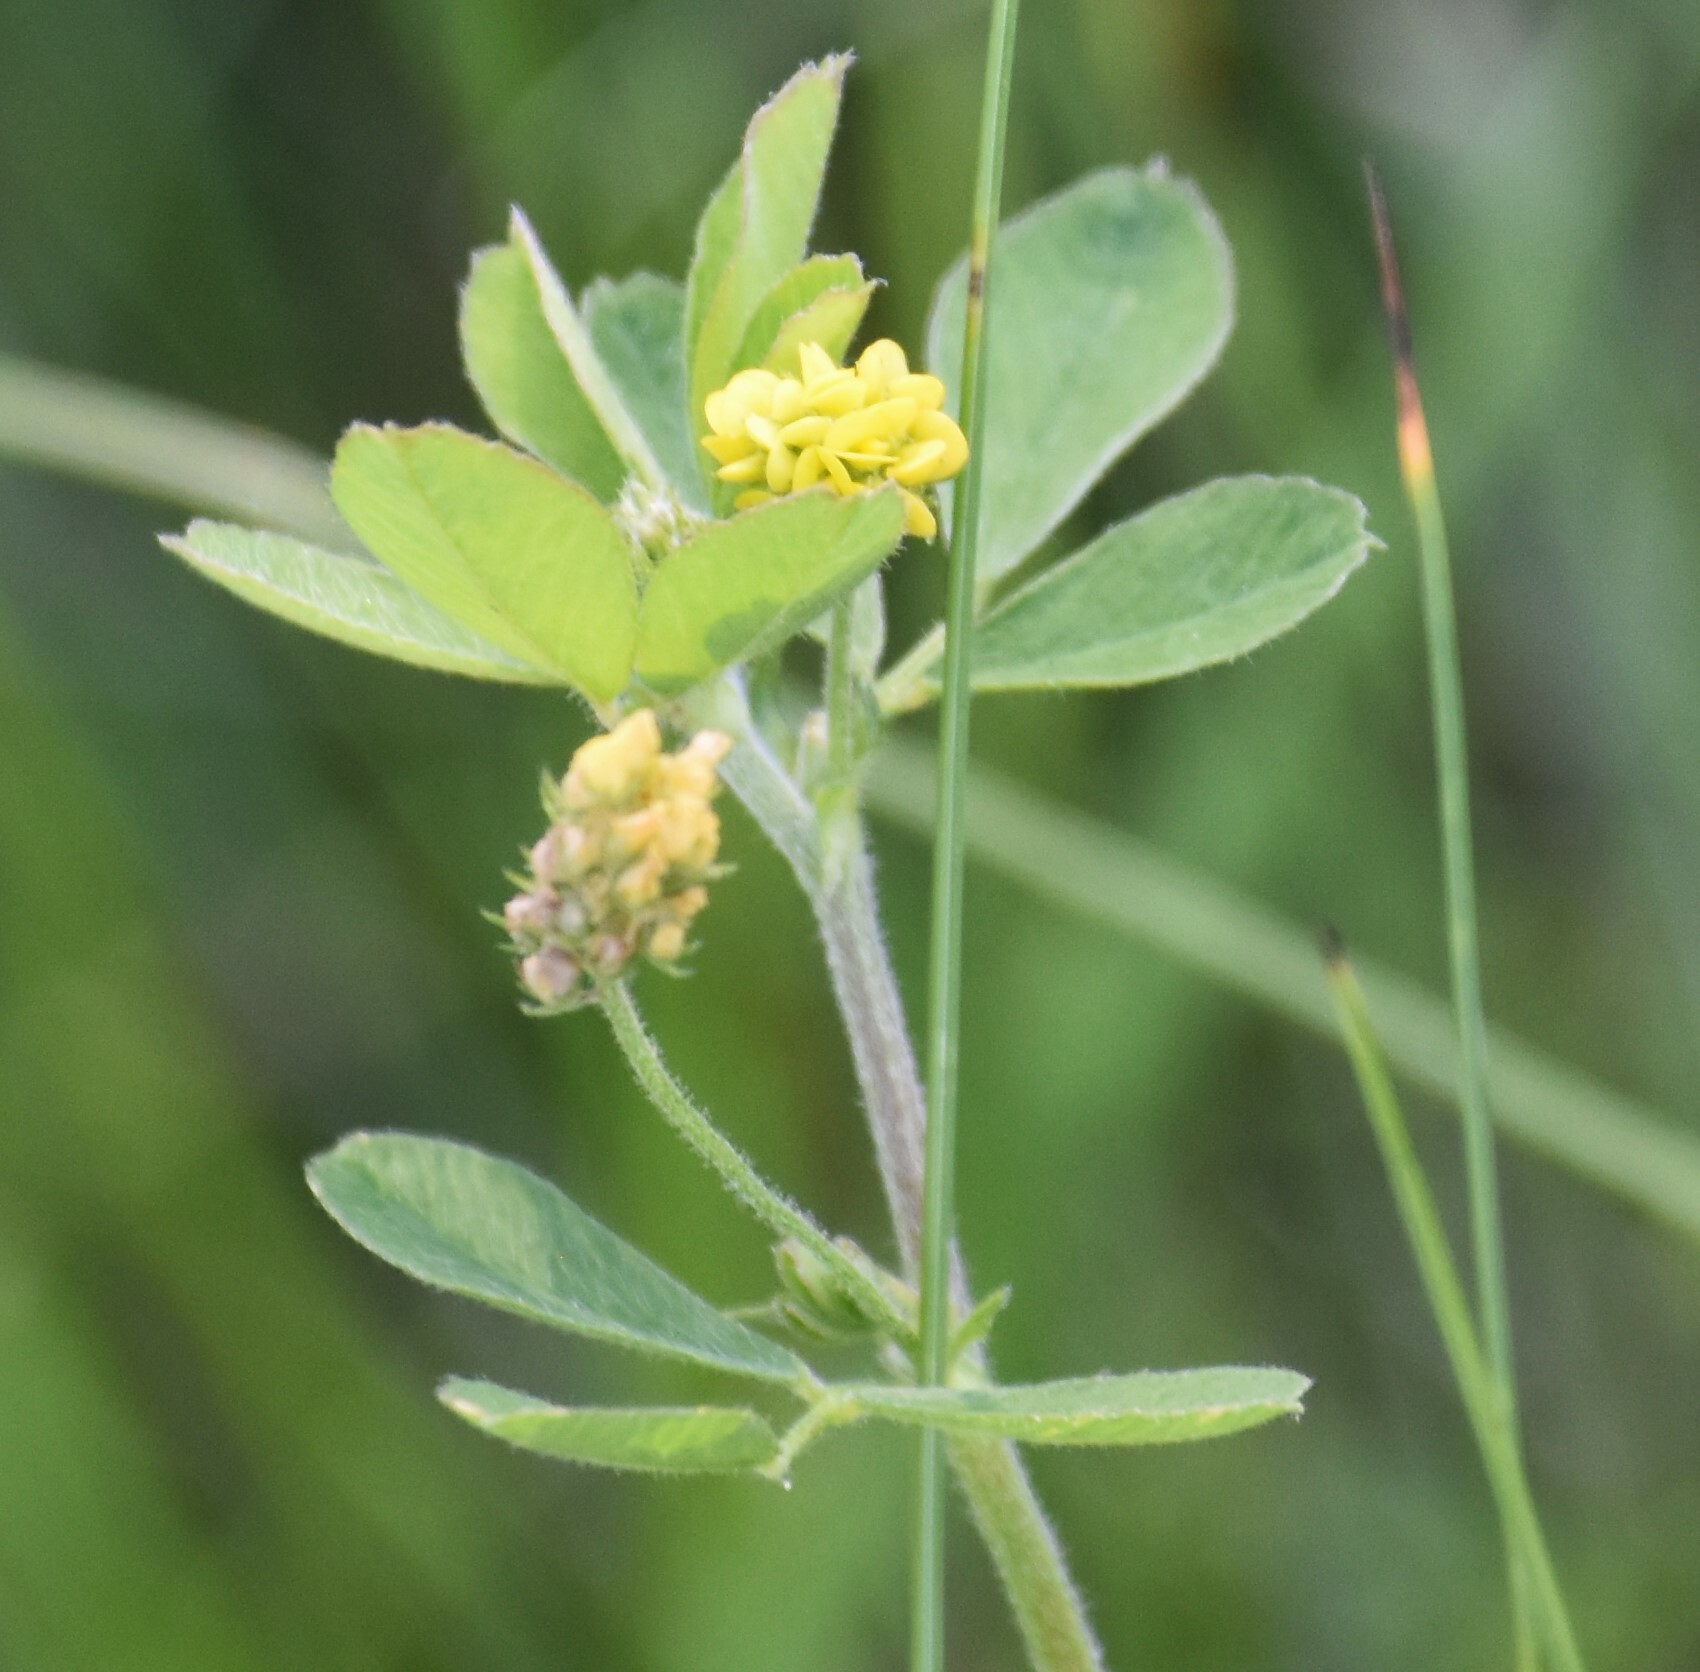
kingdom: Plantae
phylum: Tracheophyta
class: Magnoliopsida
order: Fabales
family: Fabaceae
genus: Medicago
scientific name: Medicago lupulina
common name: Black medick
